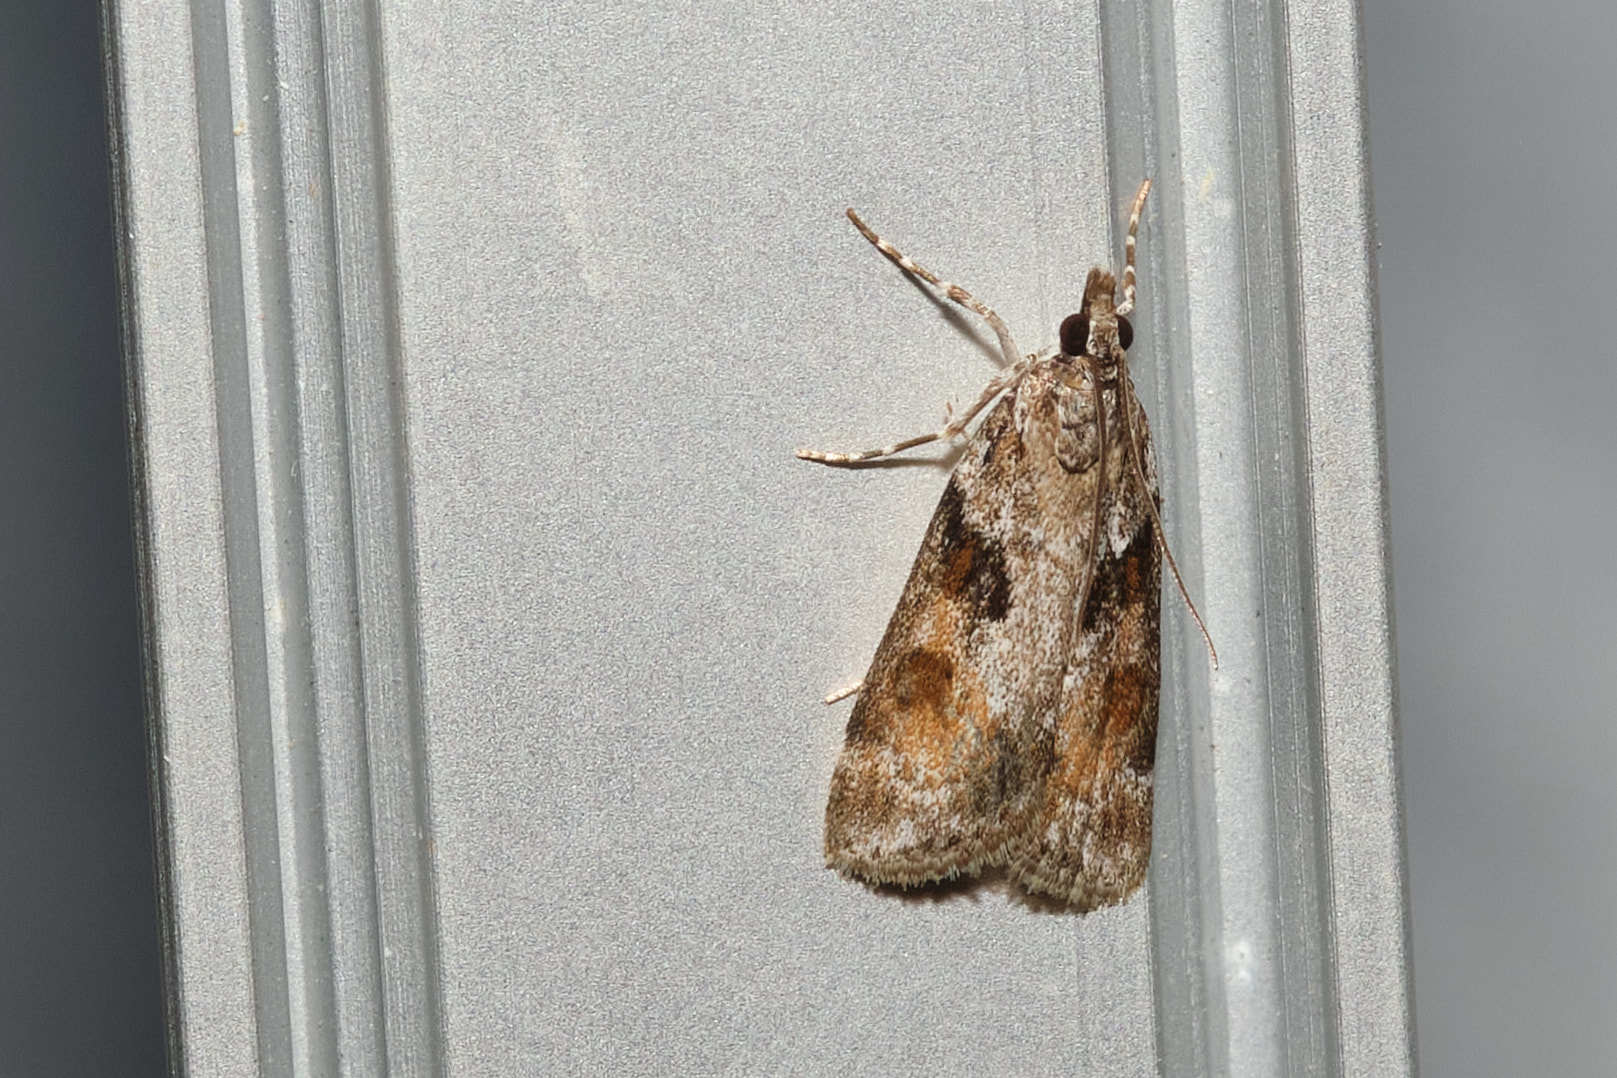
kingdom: Animalia
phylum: Arthropoda
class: Insecta
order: Lepidoptera
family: Crambidae
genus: Nomophila
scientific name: Nomophila nearctica
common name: American rush veneer
